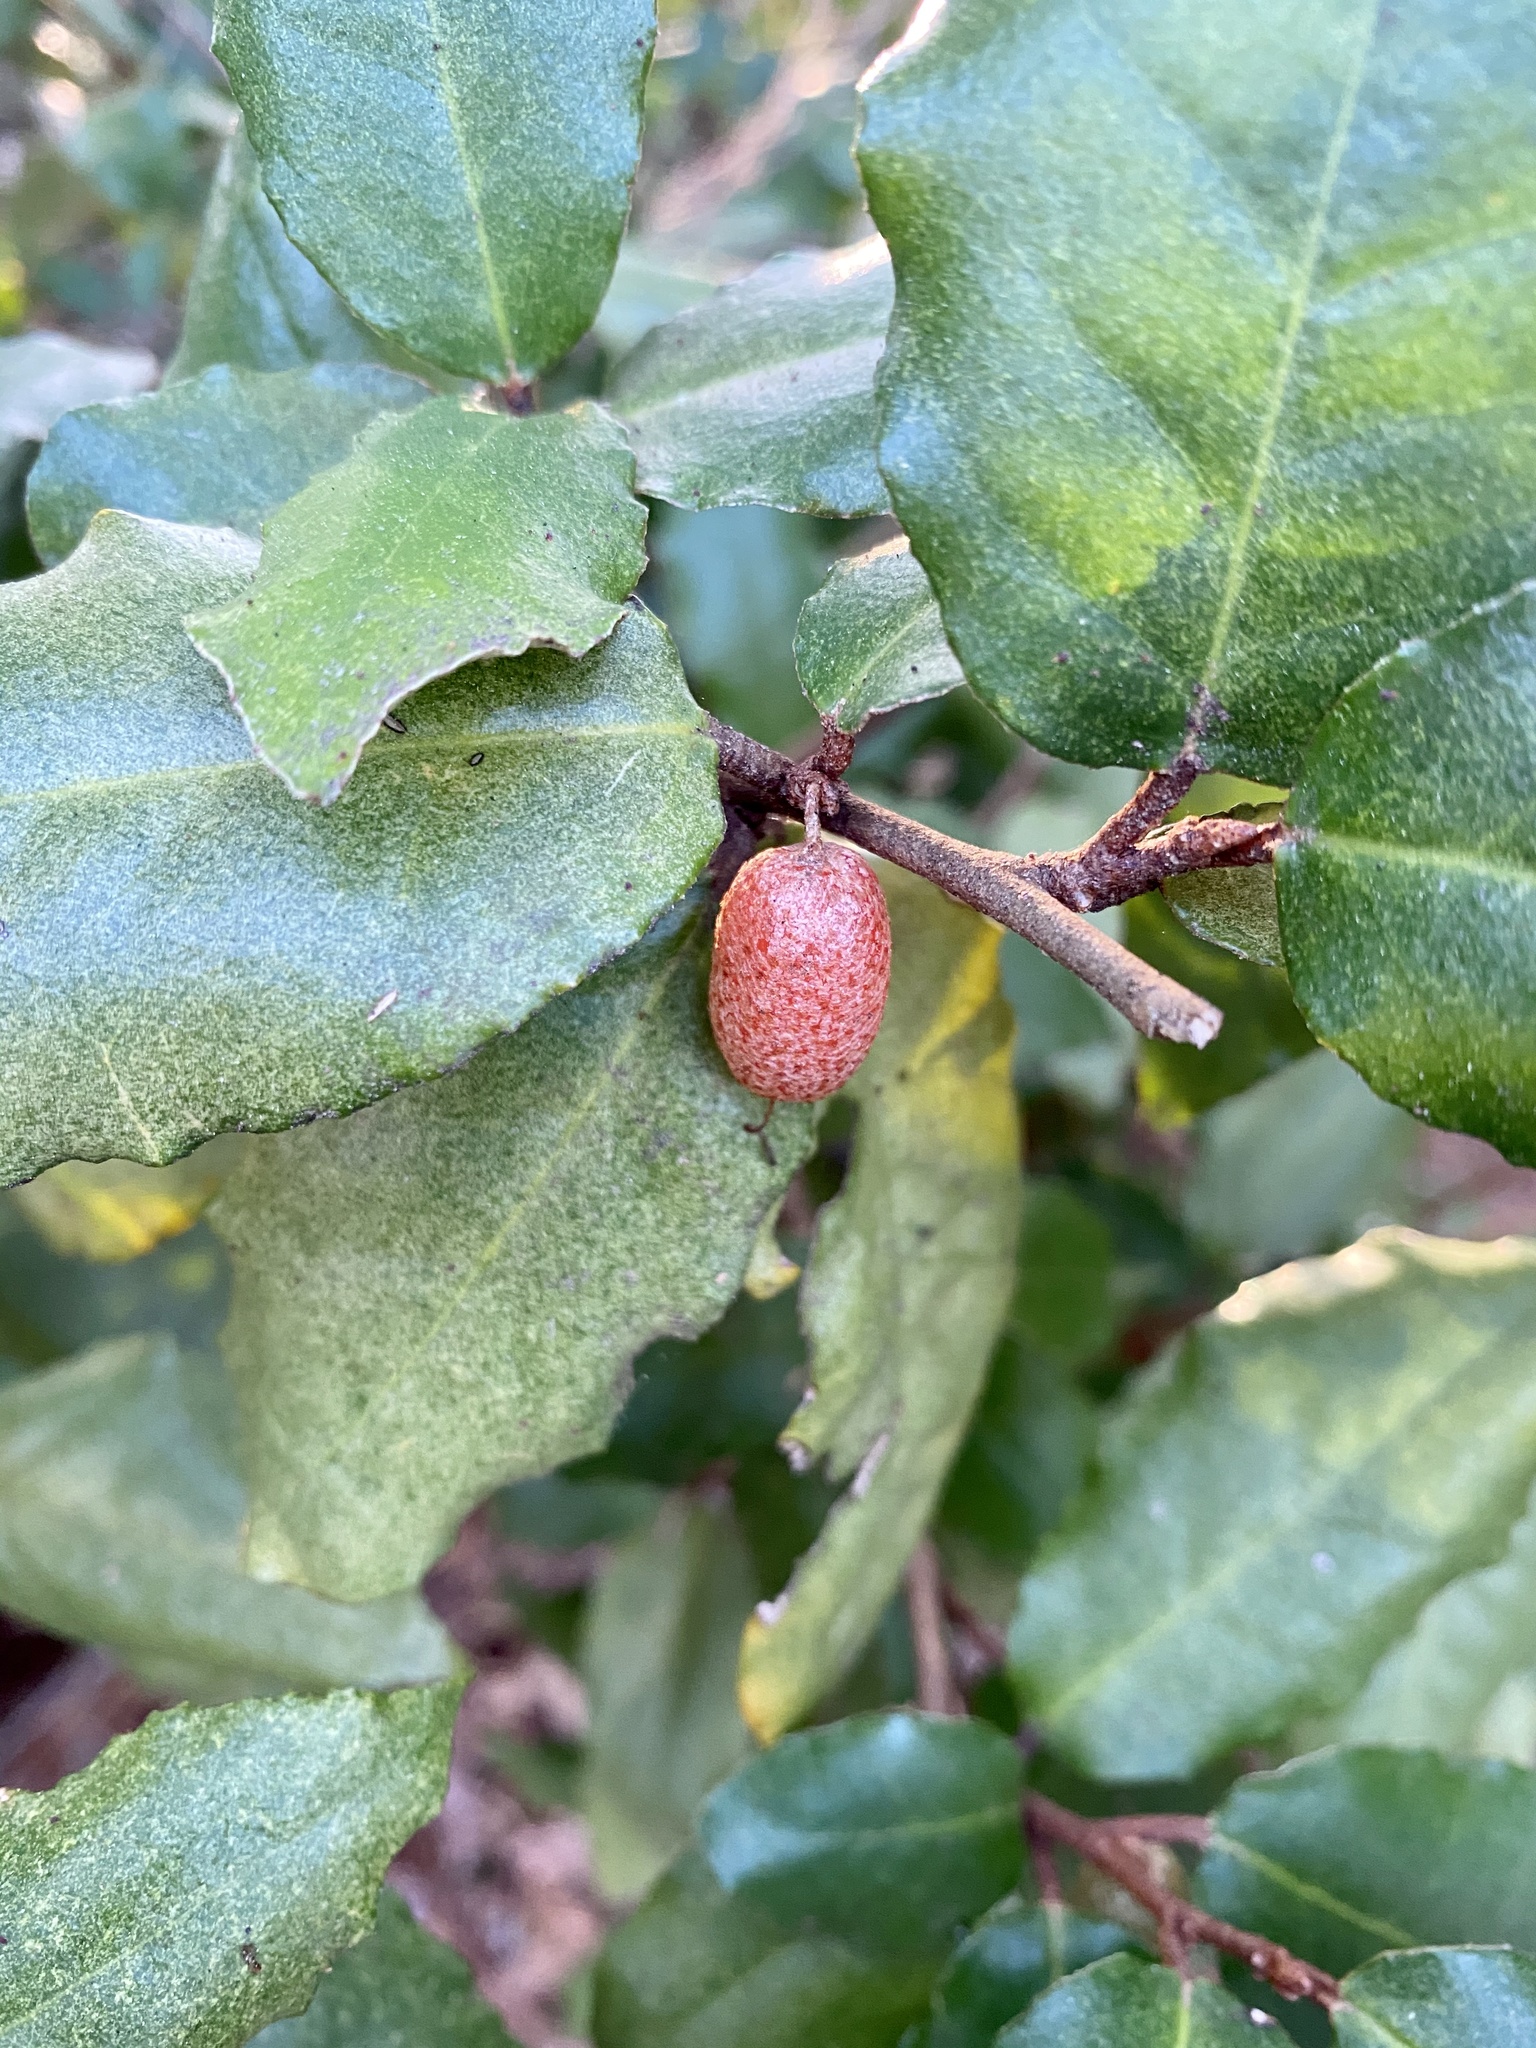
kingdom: Plantae
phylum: Tracheophyta
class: Magnoliopsida
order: Rosales
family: Elaeagnaceae
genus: Elaeagnus
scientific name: Elaeagnus pungens
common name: Spiny oleaster
